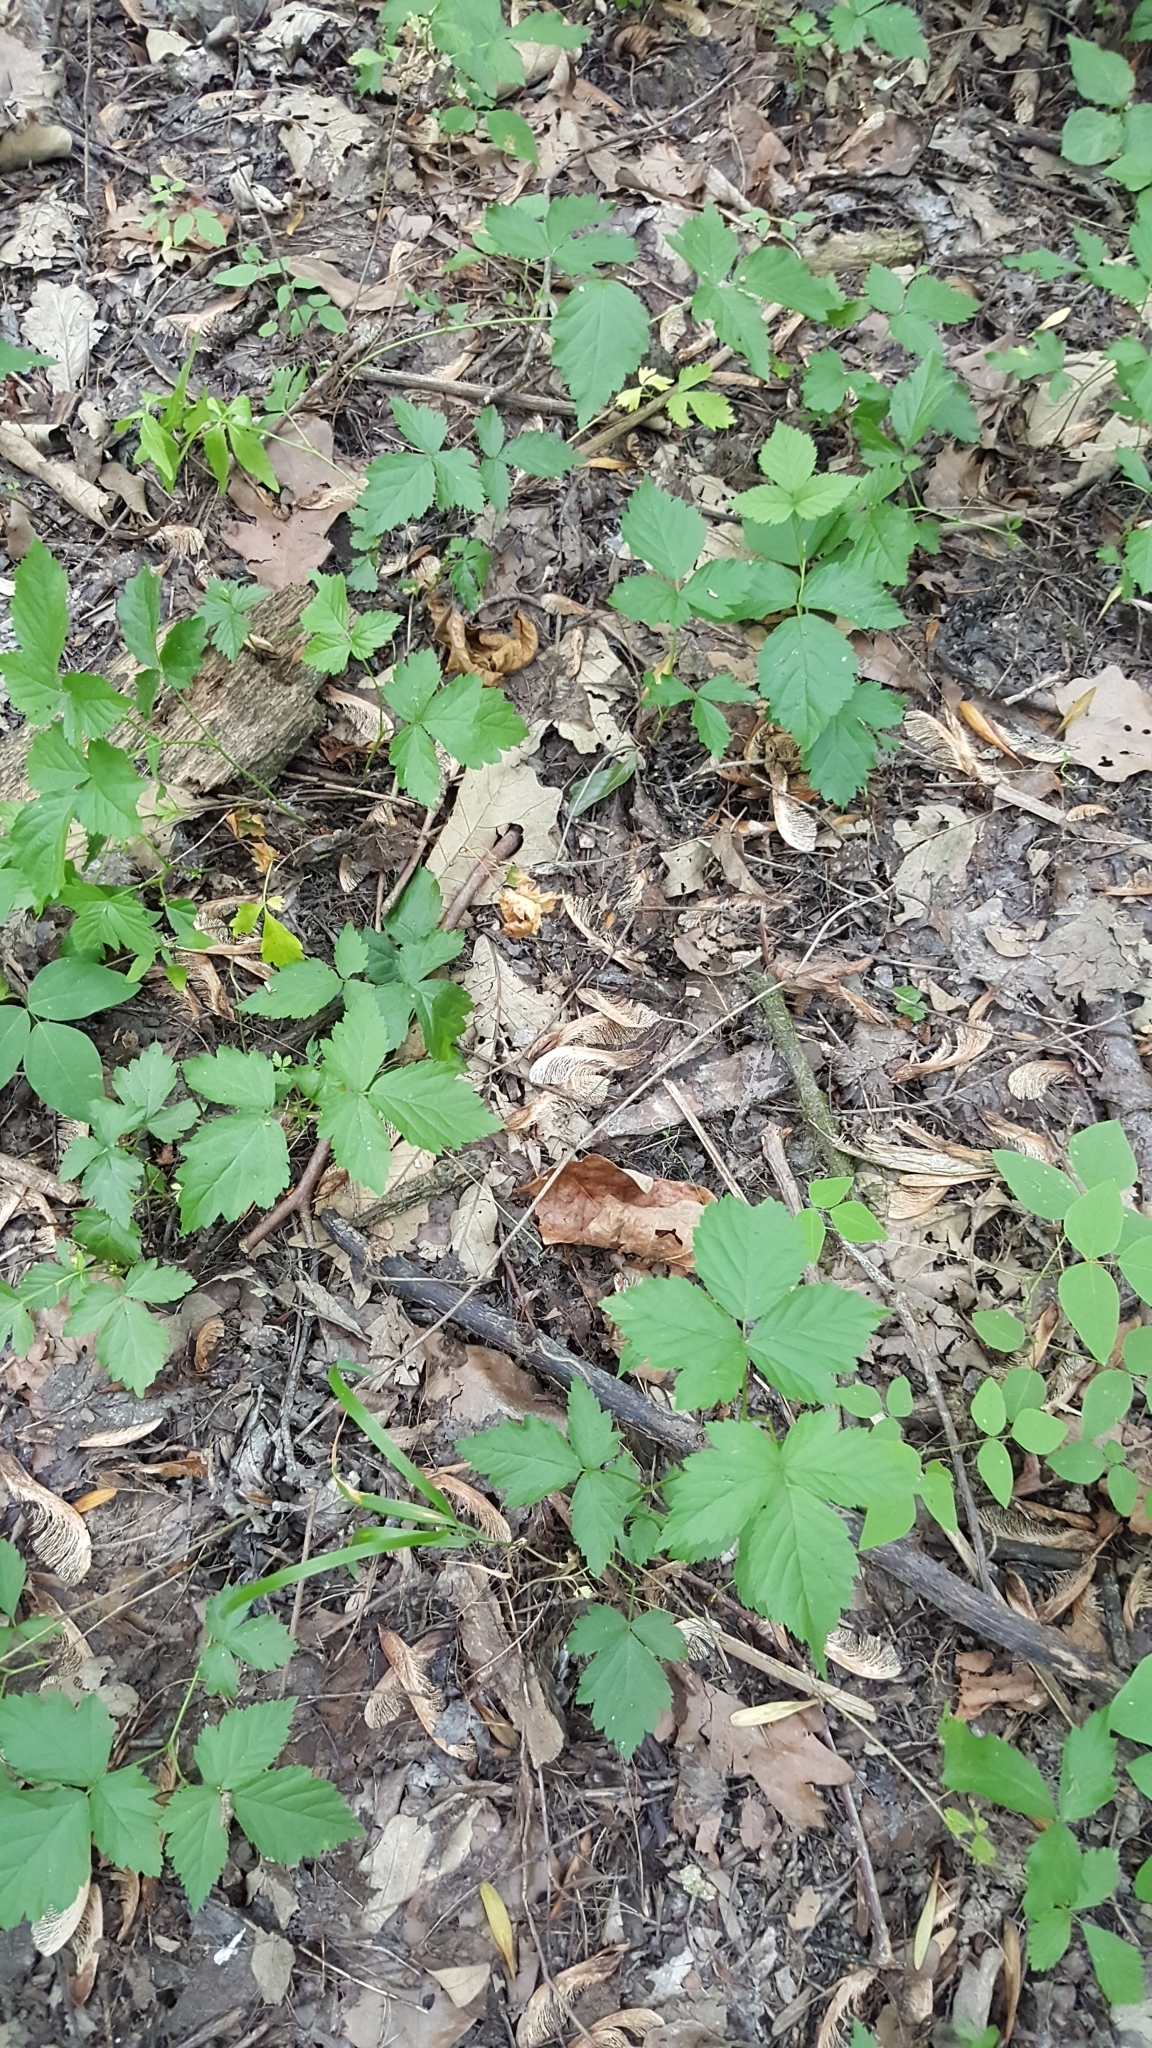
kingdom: Plantae
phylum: Tracheophyta
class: Magnoliopsida
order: Rosales
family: Rosaceae
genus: Rubus
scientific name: Rubus flagellaris
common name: American dewberry
